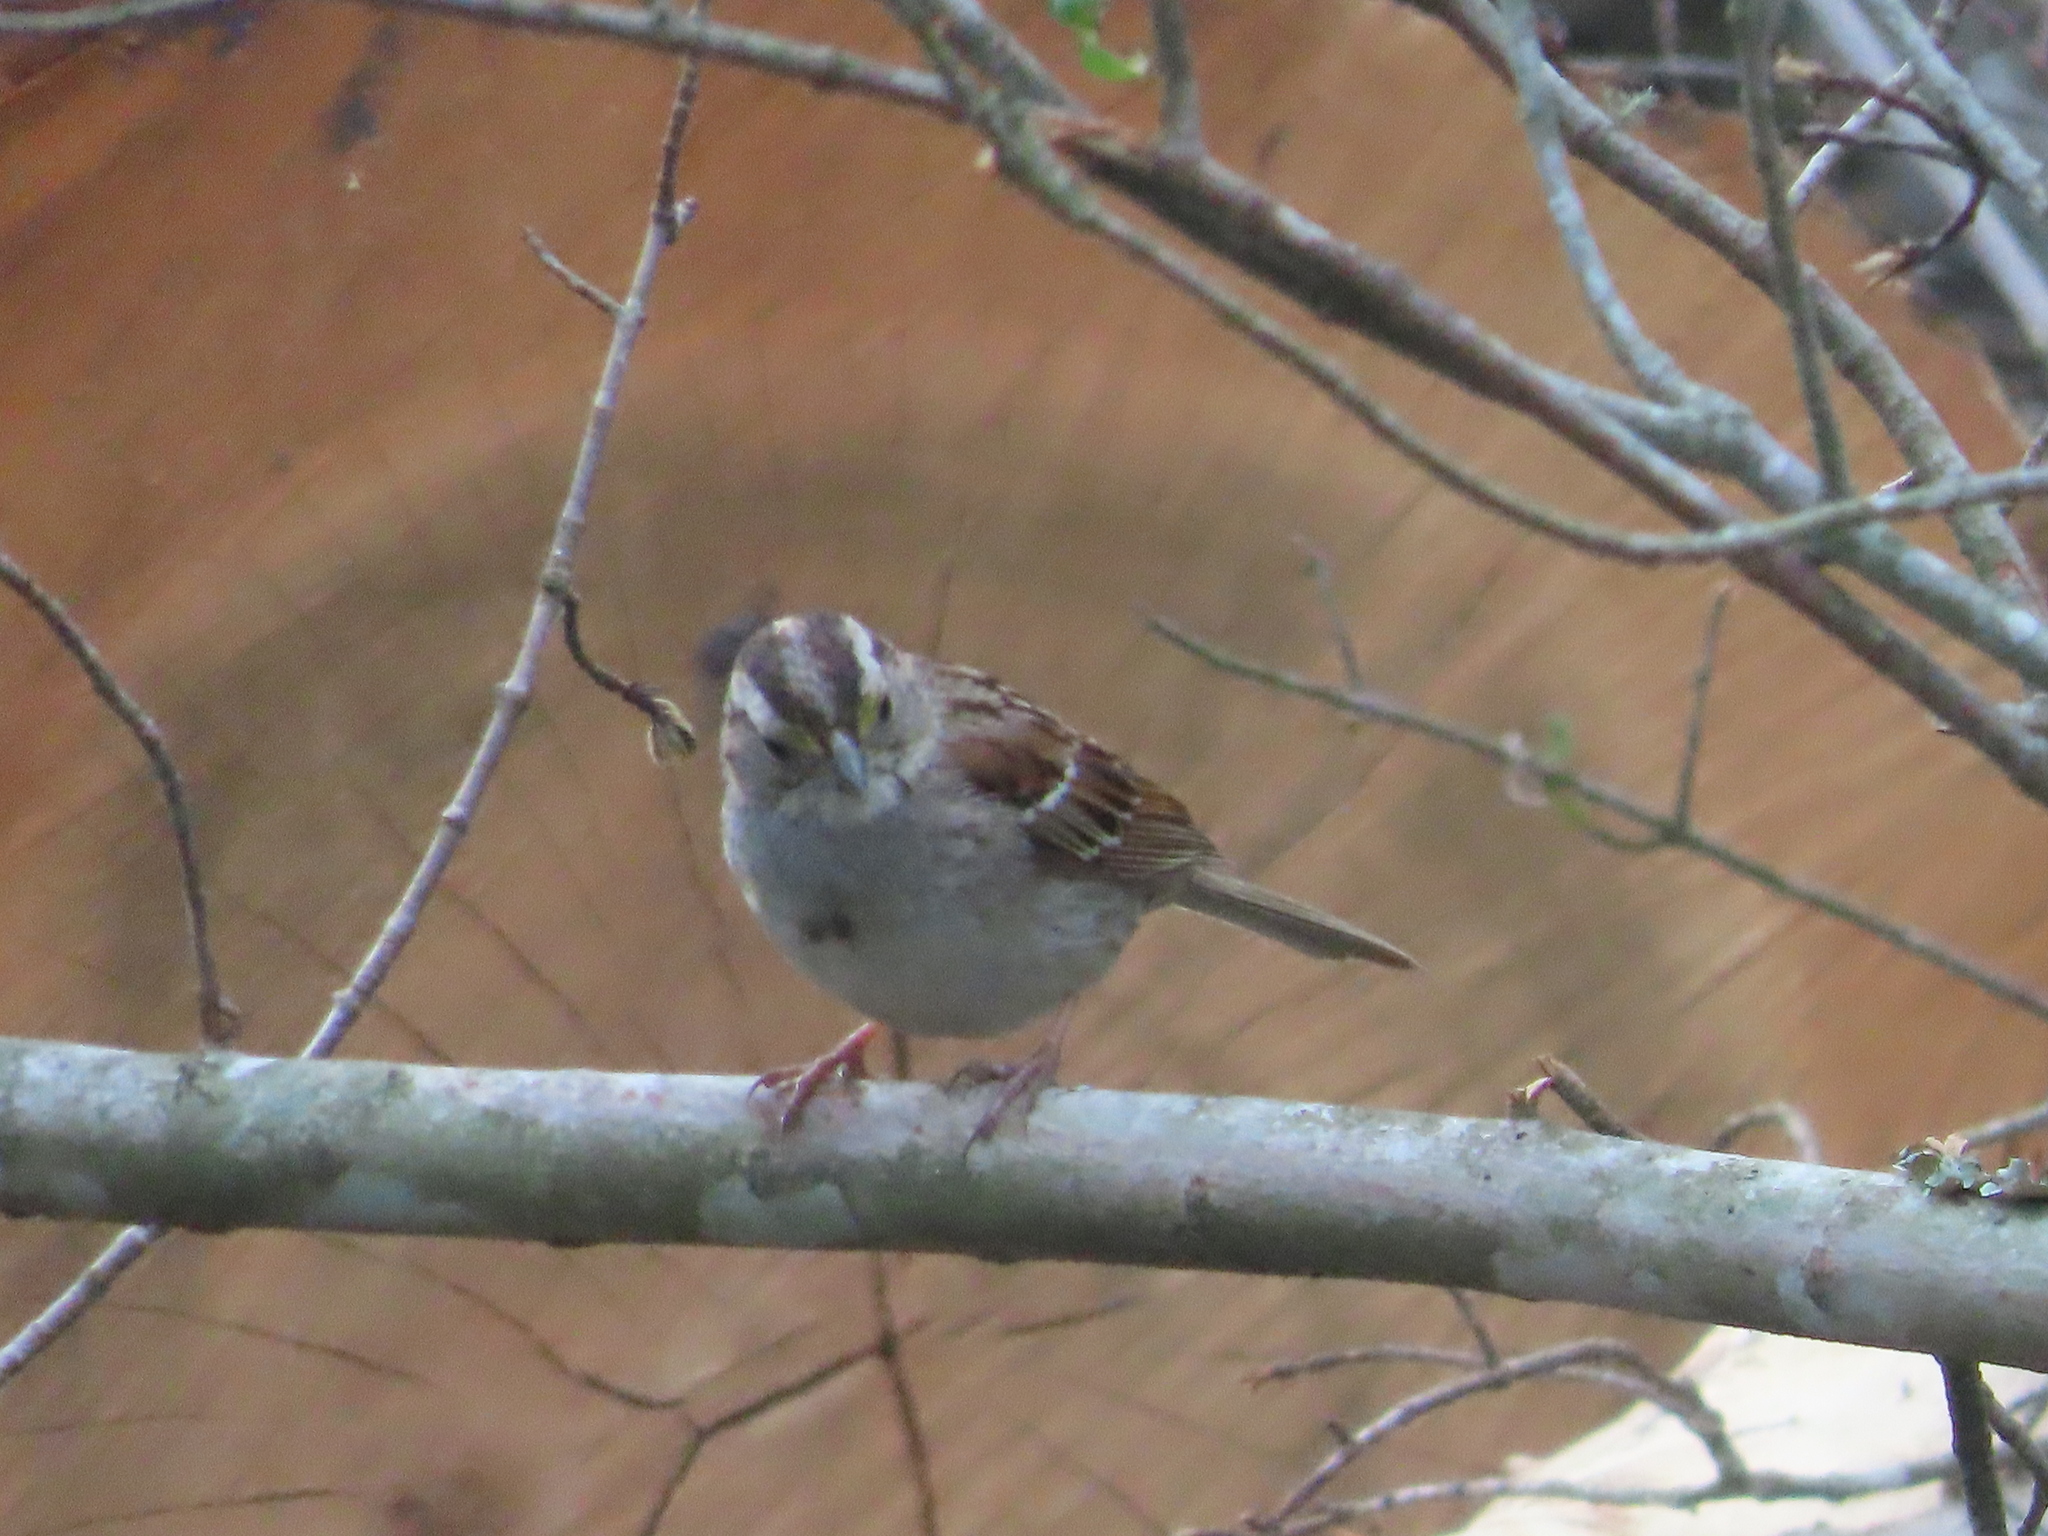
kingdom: Animalia
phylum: Chordata
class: Aves
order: Passeriformes
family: Passerellidae
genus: Zonotrichia
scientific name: Zonotrichia albicollis
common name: White-throated sparrow
